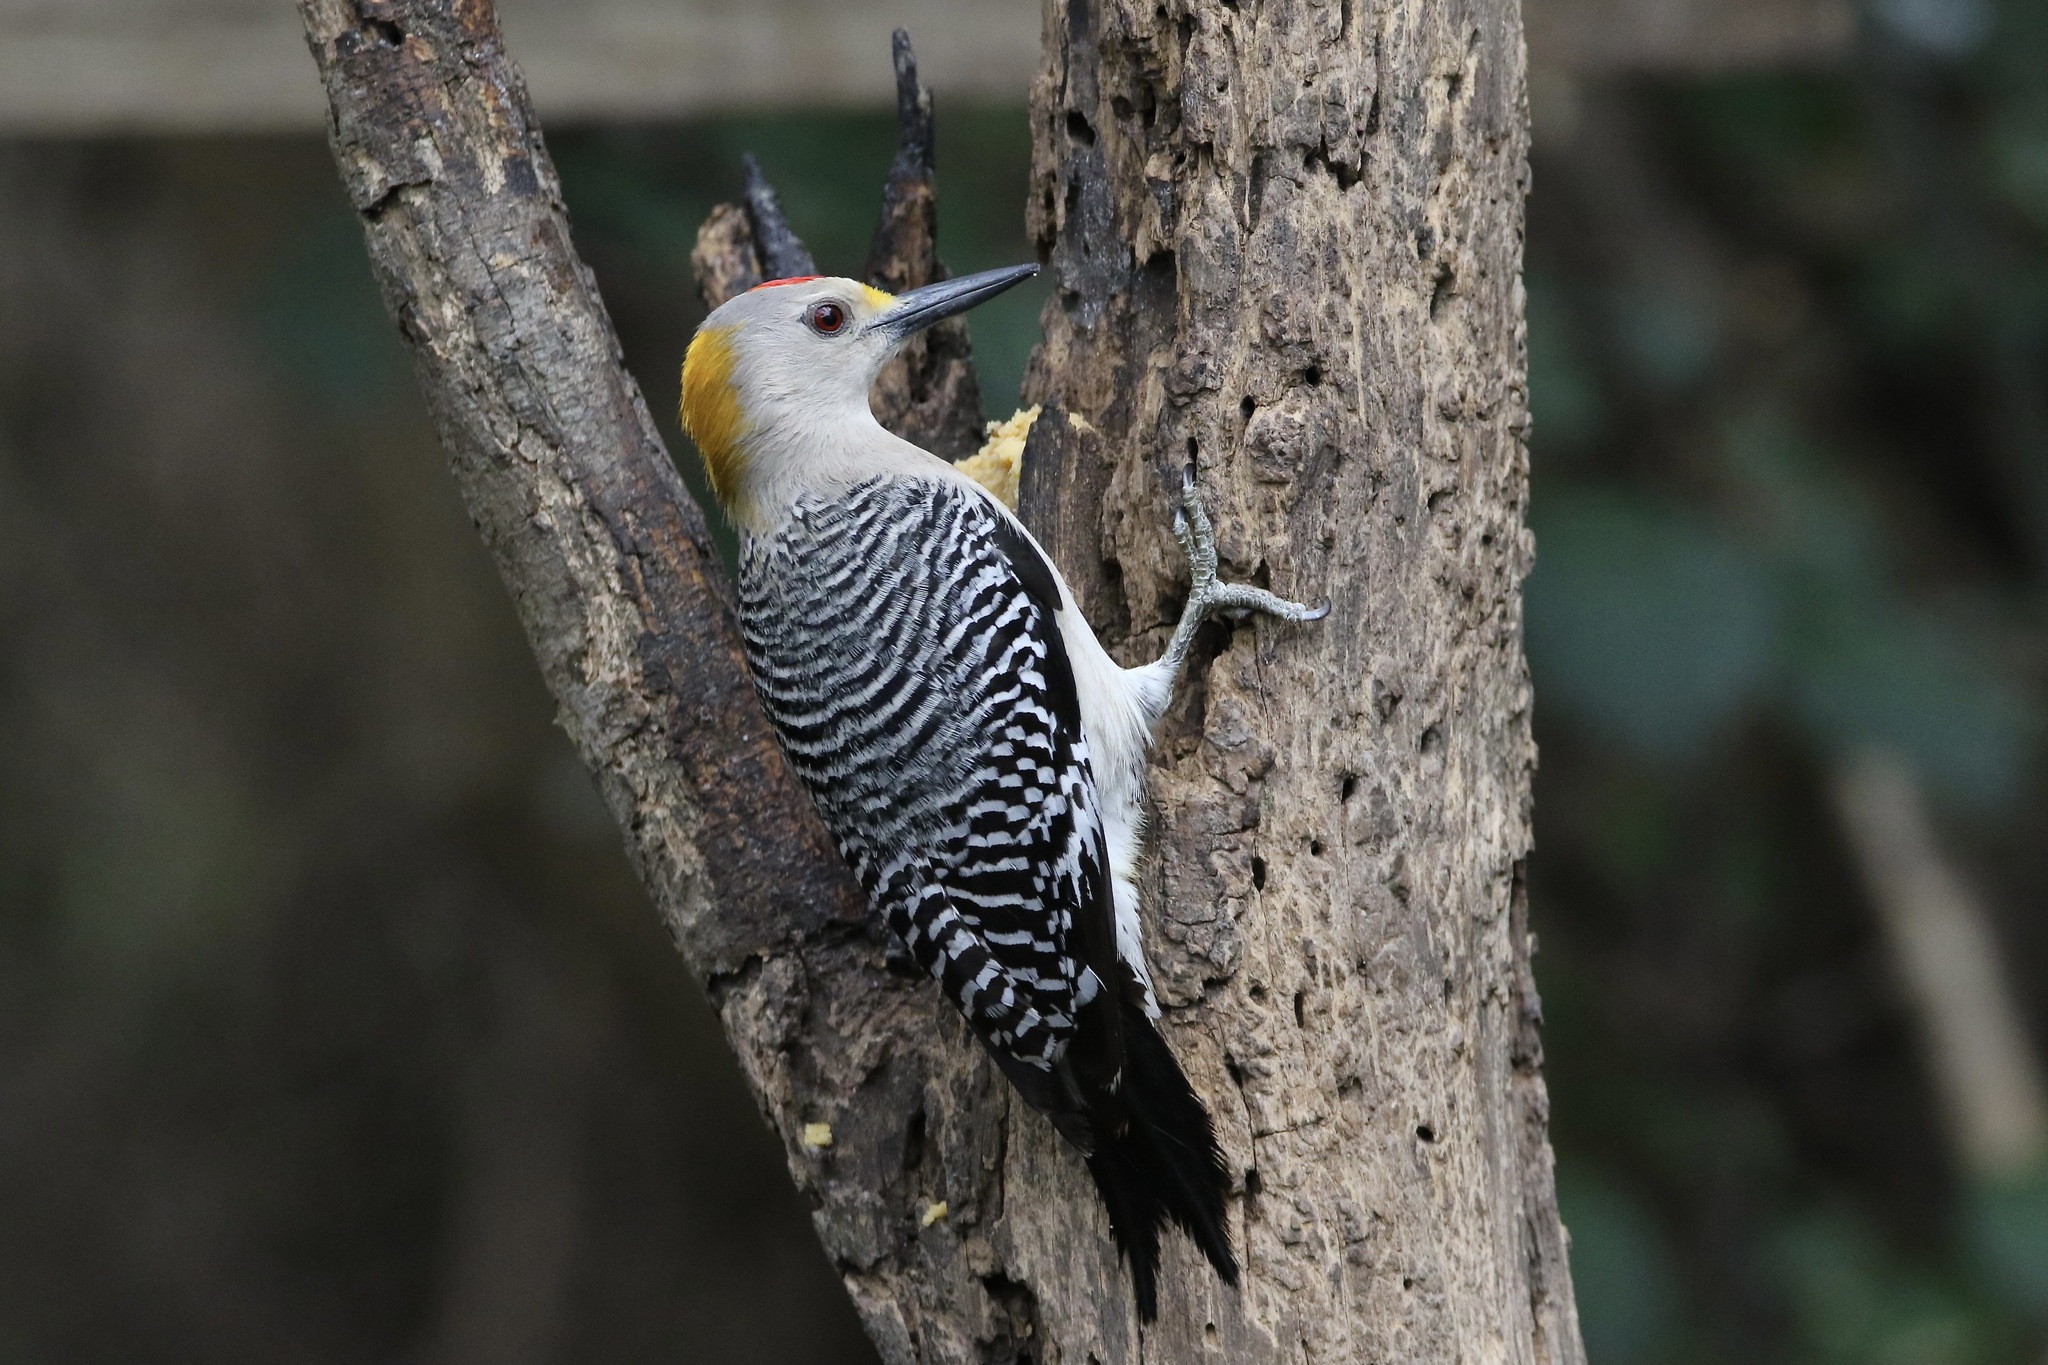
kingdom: Animalia
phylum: Chordata
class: Aves
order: Piciformes
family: Picidae
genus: Melanerpes
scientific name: Melanerpes aurifrons
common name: Golden-fronted woodpecker
